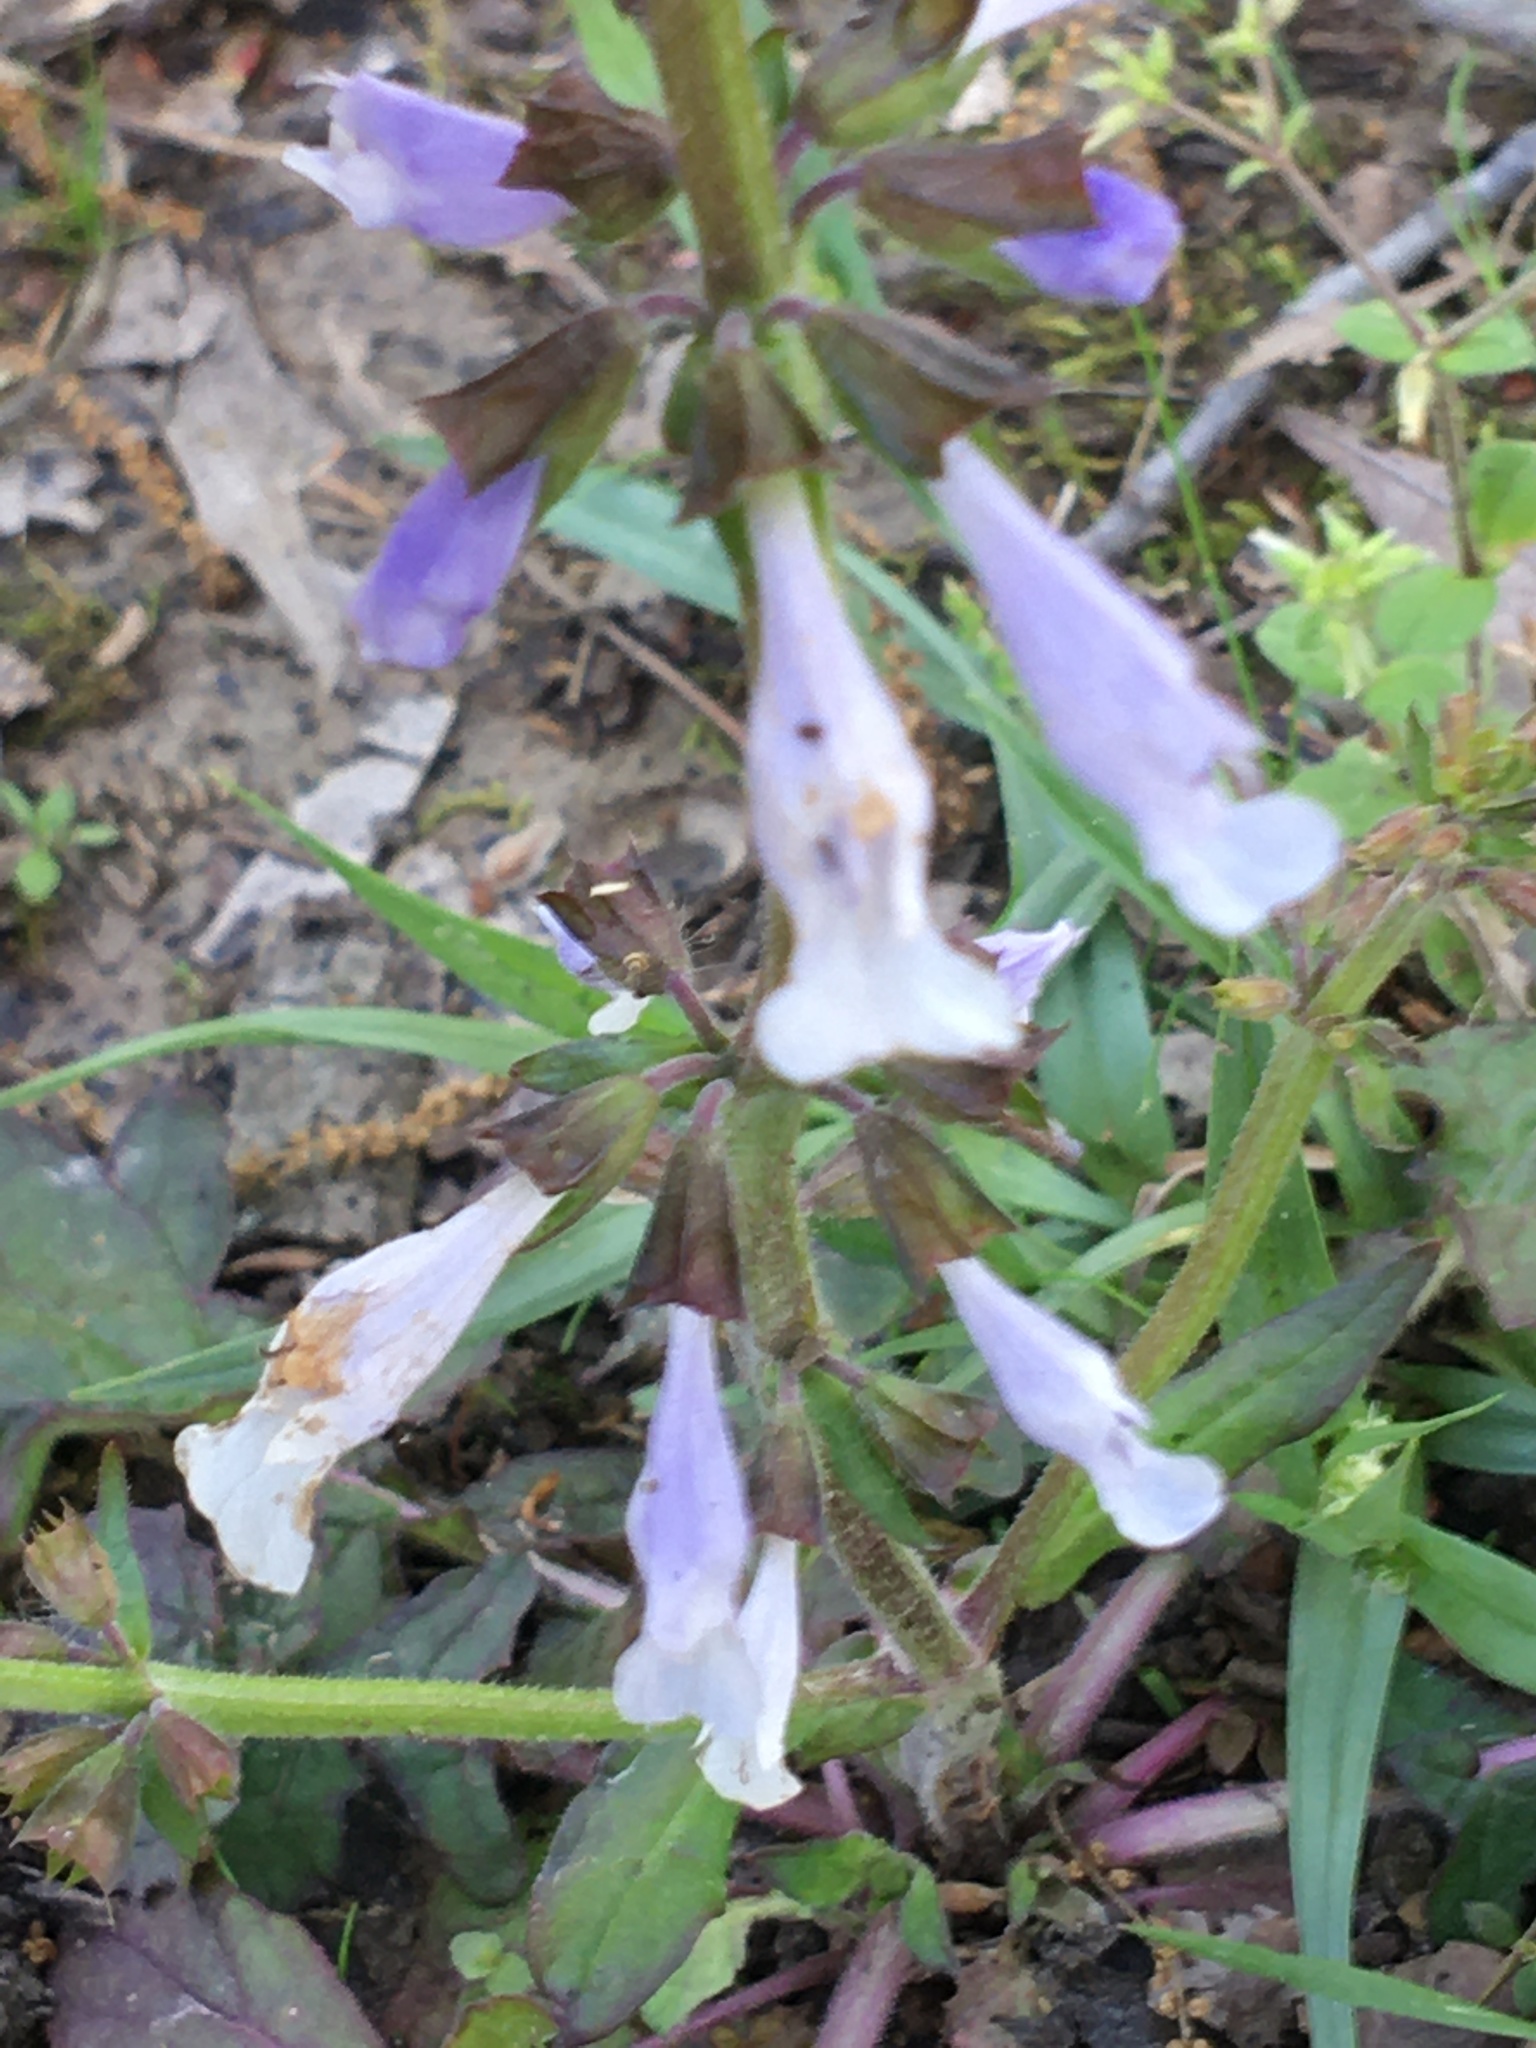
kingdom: Plantae
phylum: Tracheophyta
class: Magnoliopsida
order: Lamiales
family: Lamiaceae
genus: Salvia
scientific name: Salvia lyrata
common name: Cancerweed
